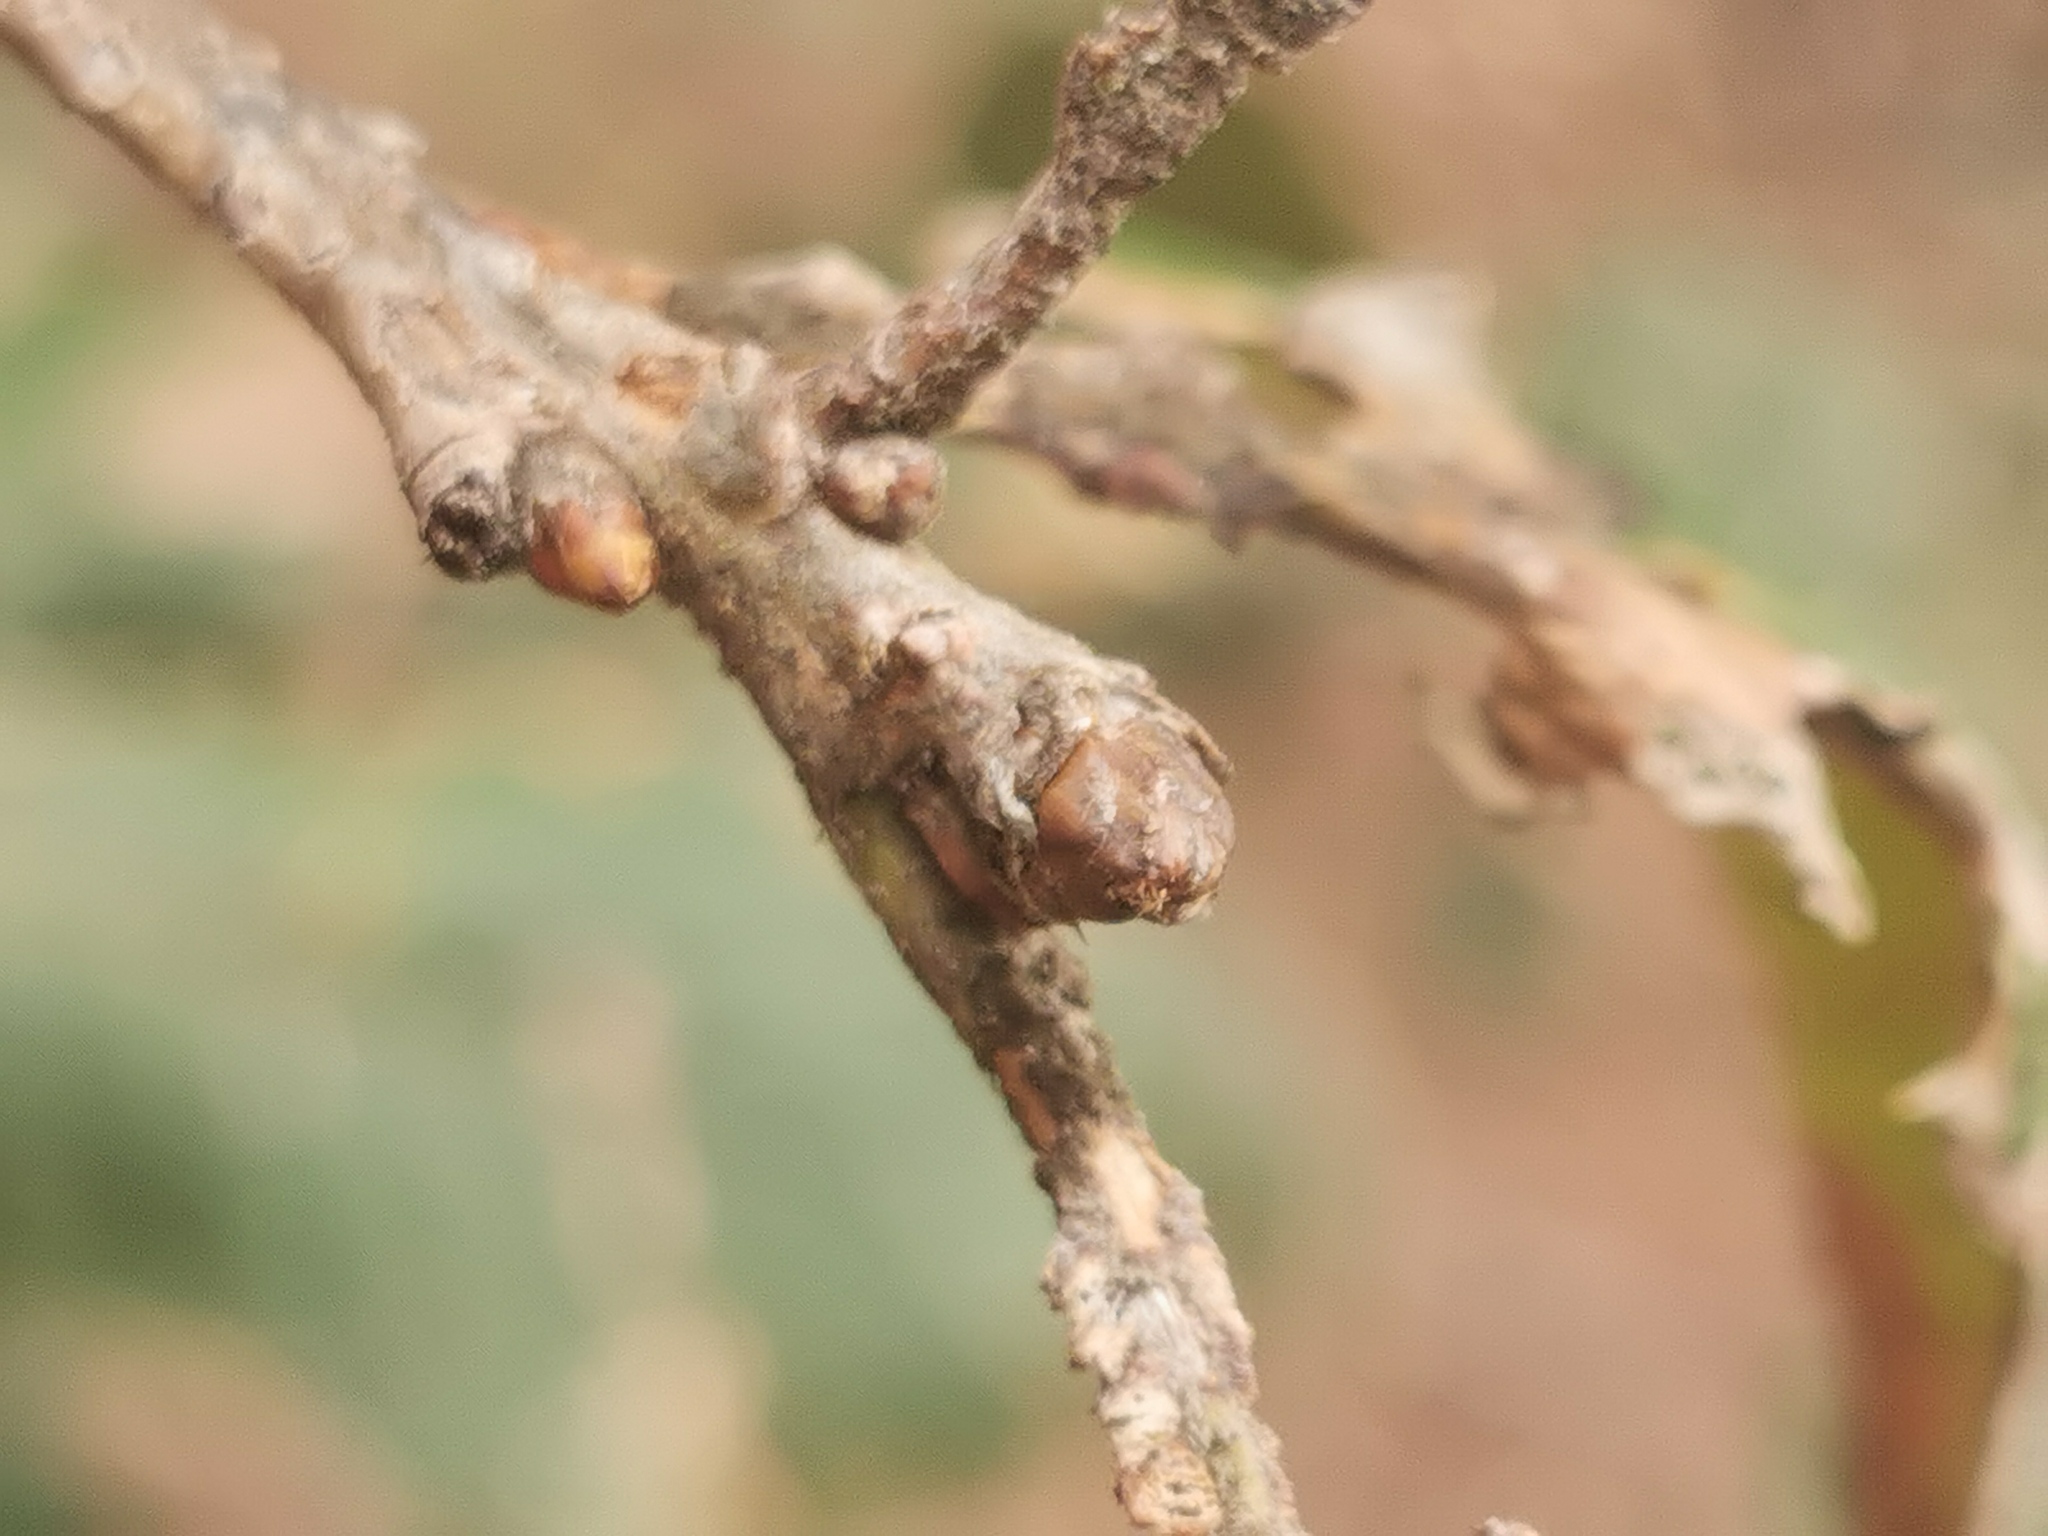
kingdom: Plantae
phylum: Tracheophyta
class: Magnoliopsida
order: Fagales
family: Fagaceae
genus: Quercus
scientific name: Quercus rugosa
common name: Netleaf oak
